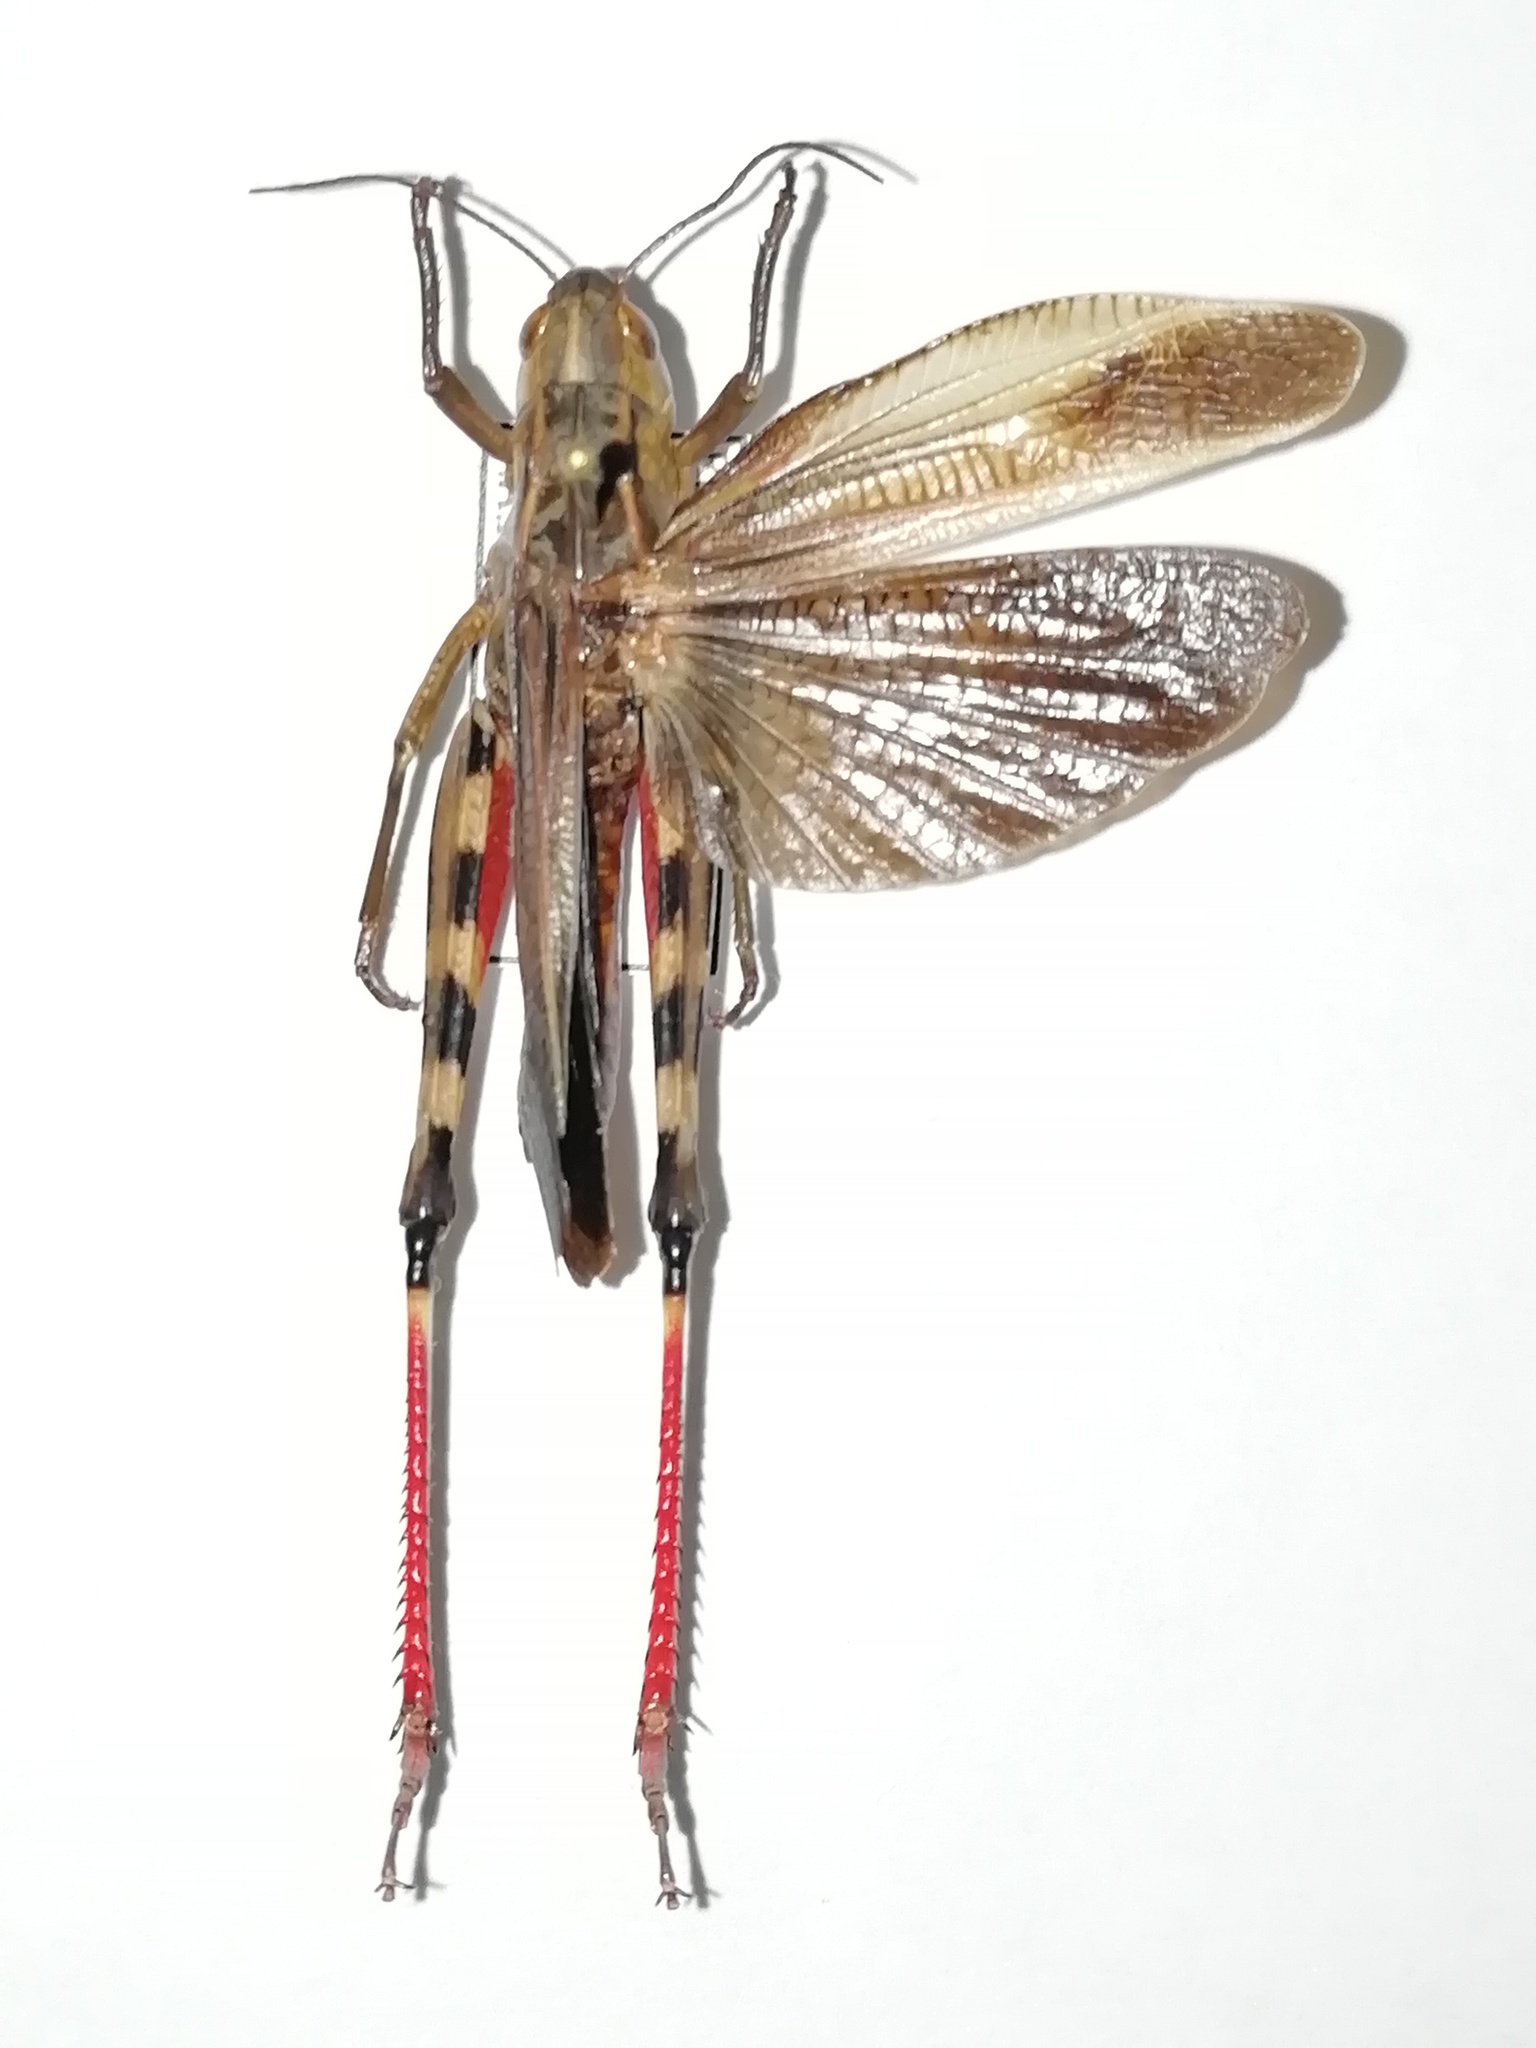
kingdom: Animalia
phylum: Arthropoda
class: Insecta
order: Orthoptera
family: Acrididae
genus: Arcyptera
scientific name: Arcyptera fusca
